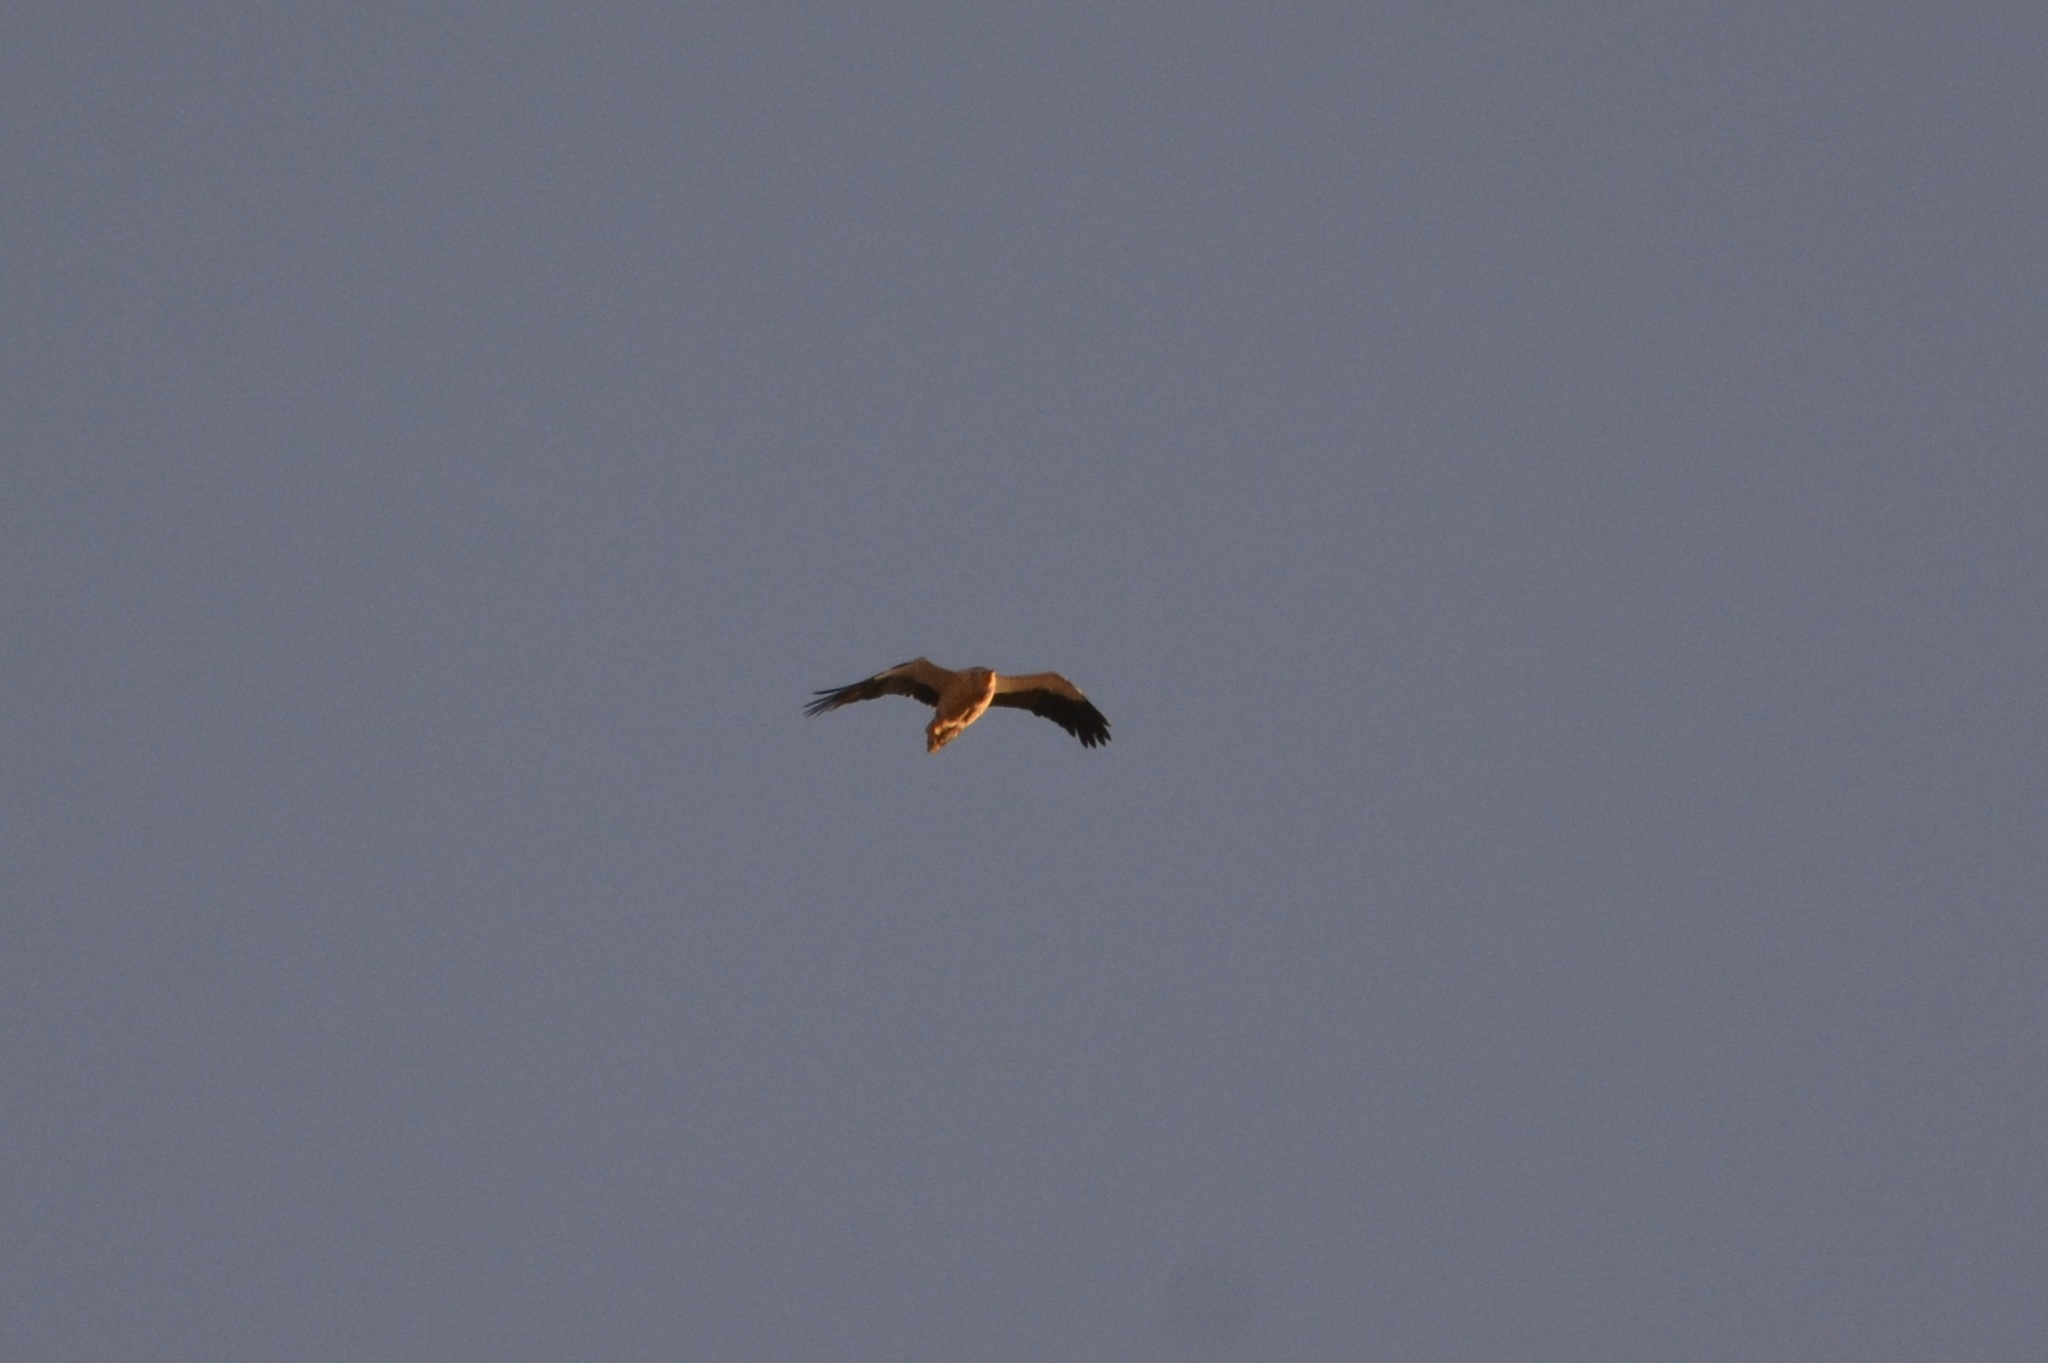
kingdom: Animalia
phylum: Chordata
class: Aves
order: Accipitriformes
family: Accipitridae
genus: Neophron
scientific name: Neophron percnopterus
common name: Egyptian vulture
